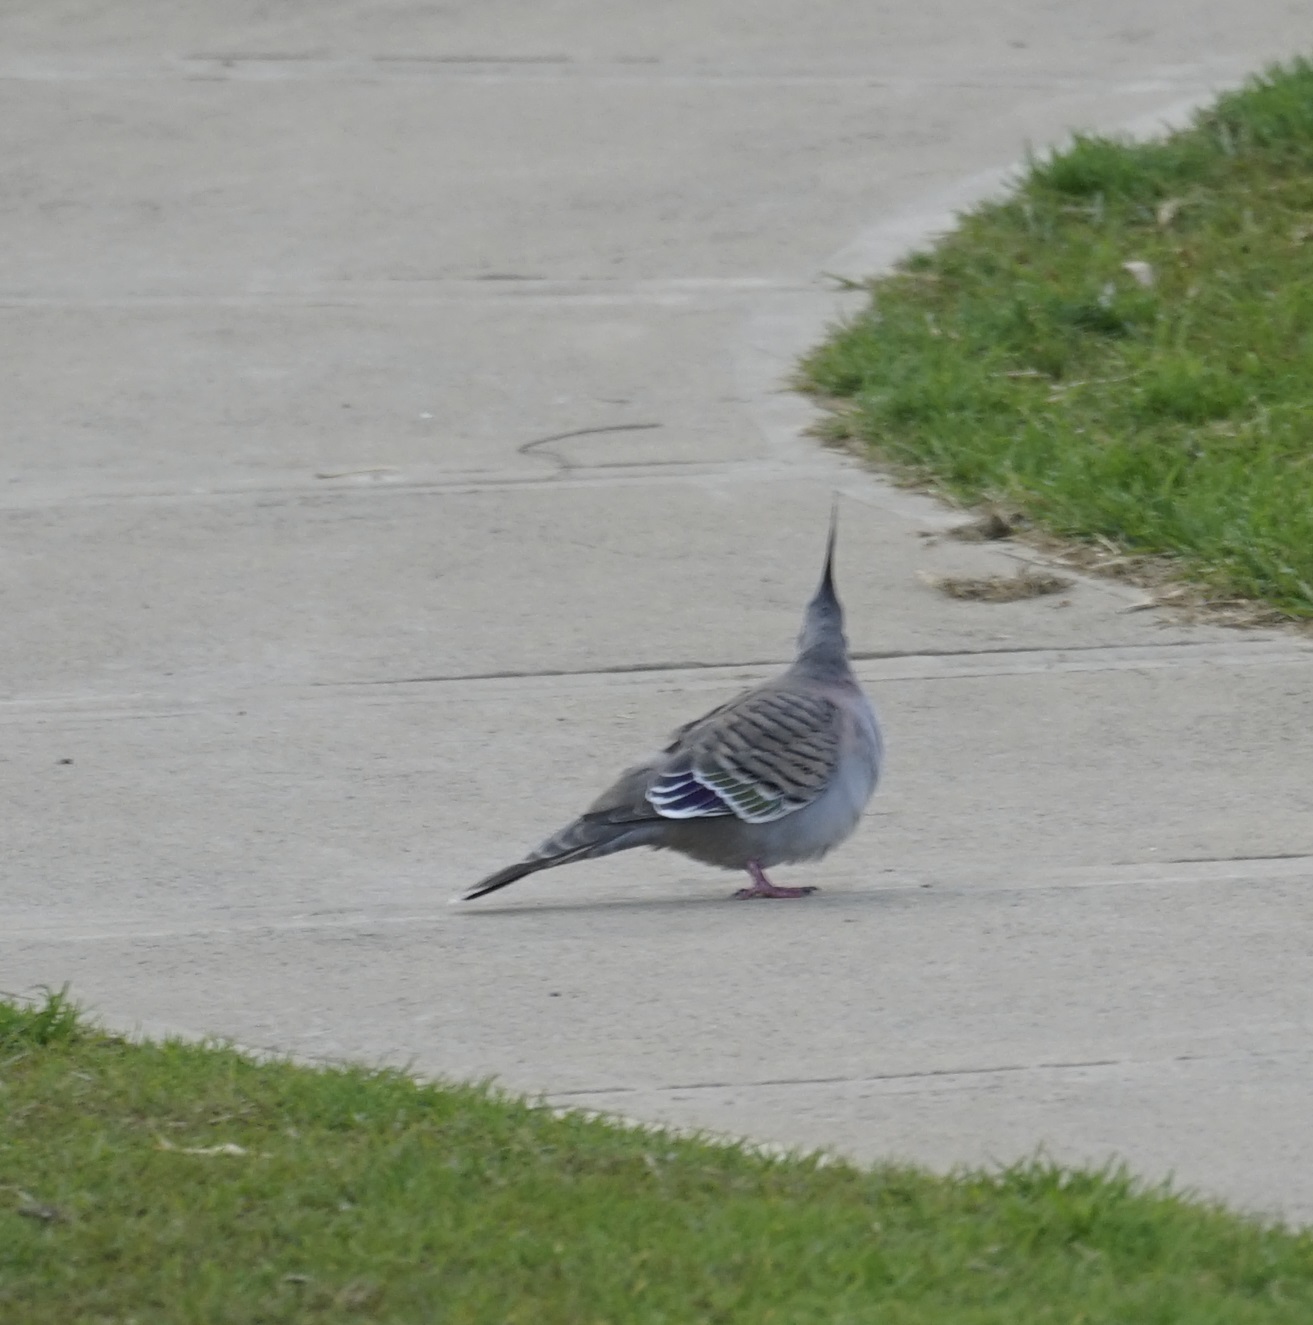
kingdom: Animalia
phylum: Chordata
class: Aves
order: Columbiformes
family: Columbidae
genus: Ocyphaps
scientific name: Ocyphaps lophotes
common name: Crested pigeon
